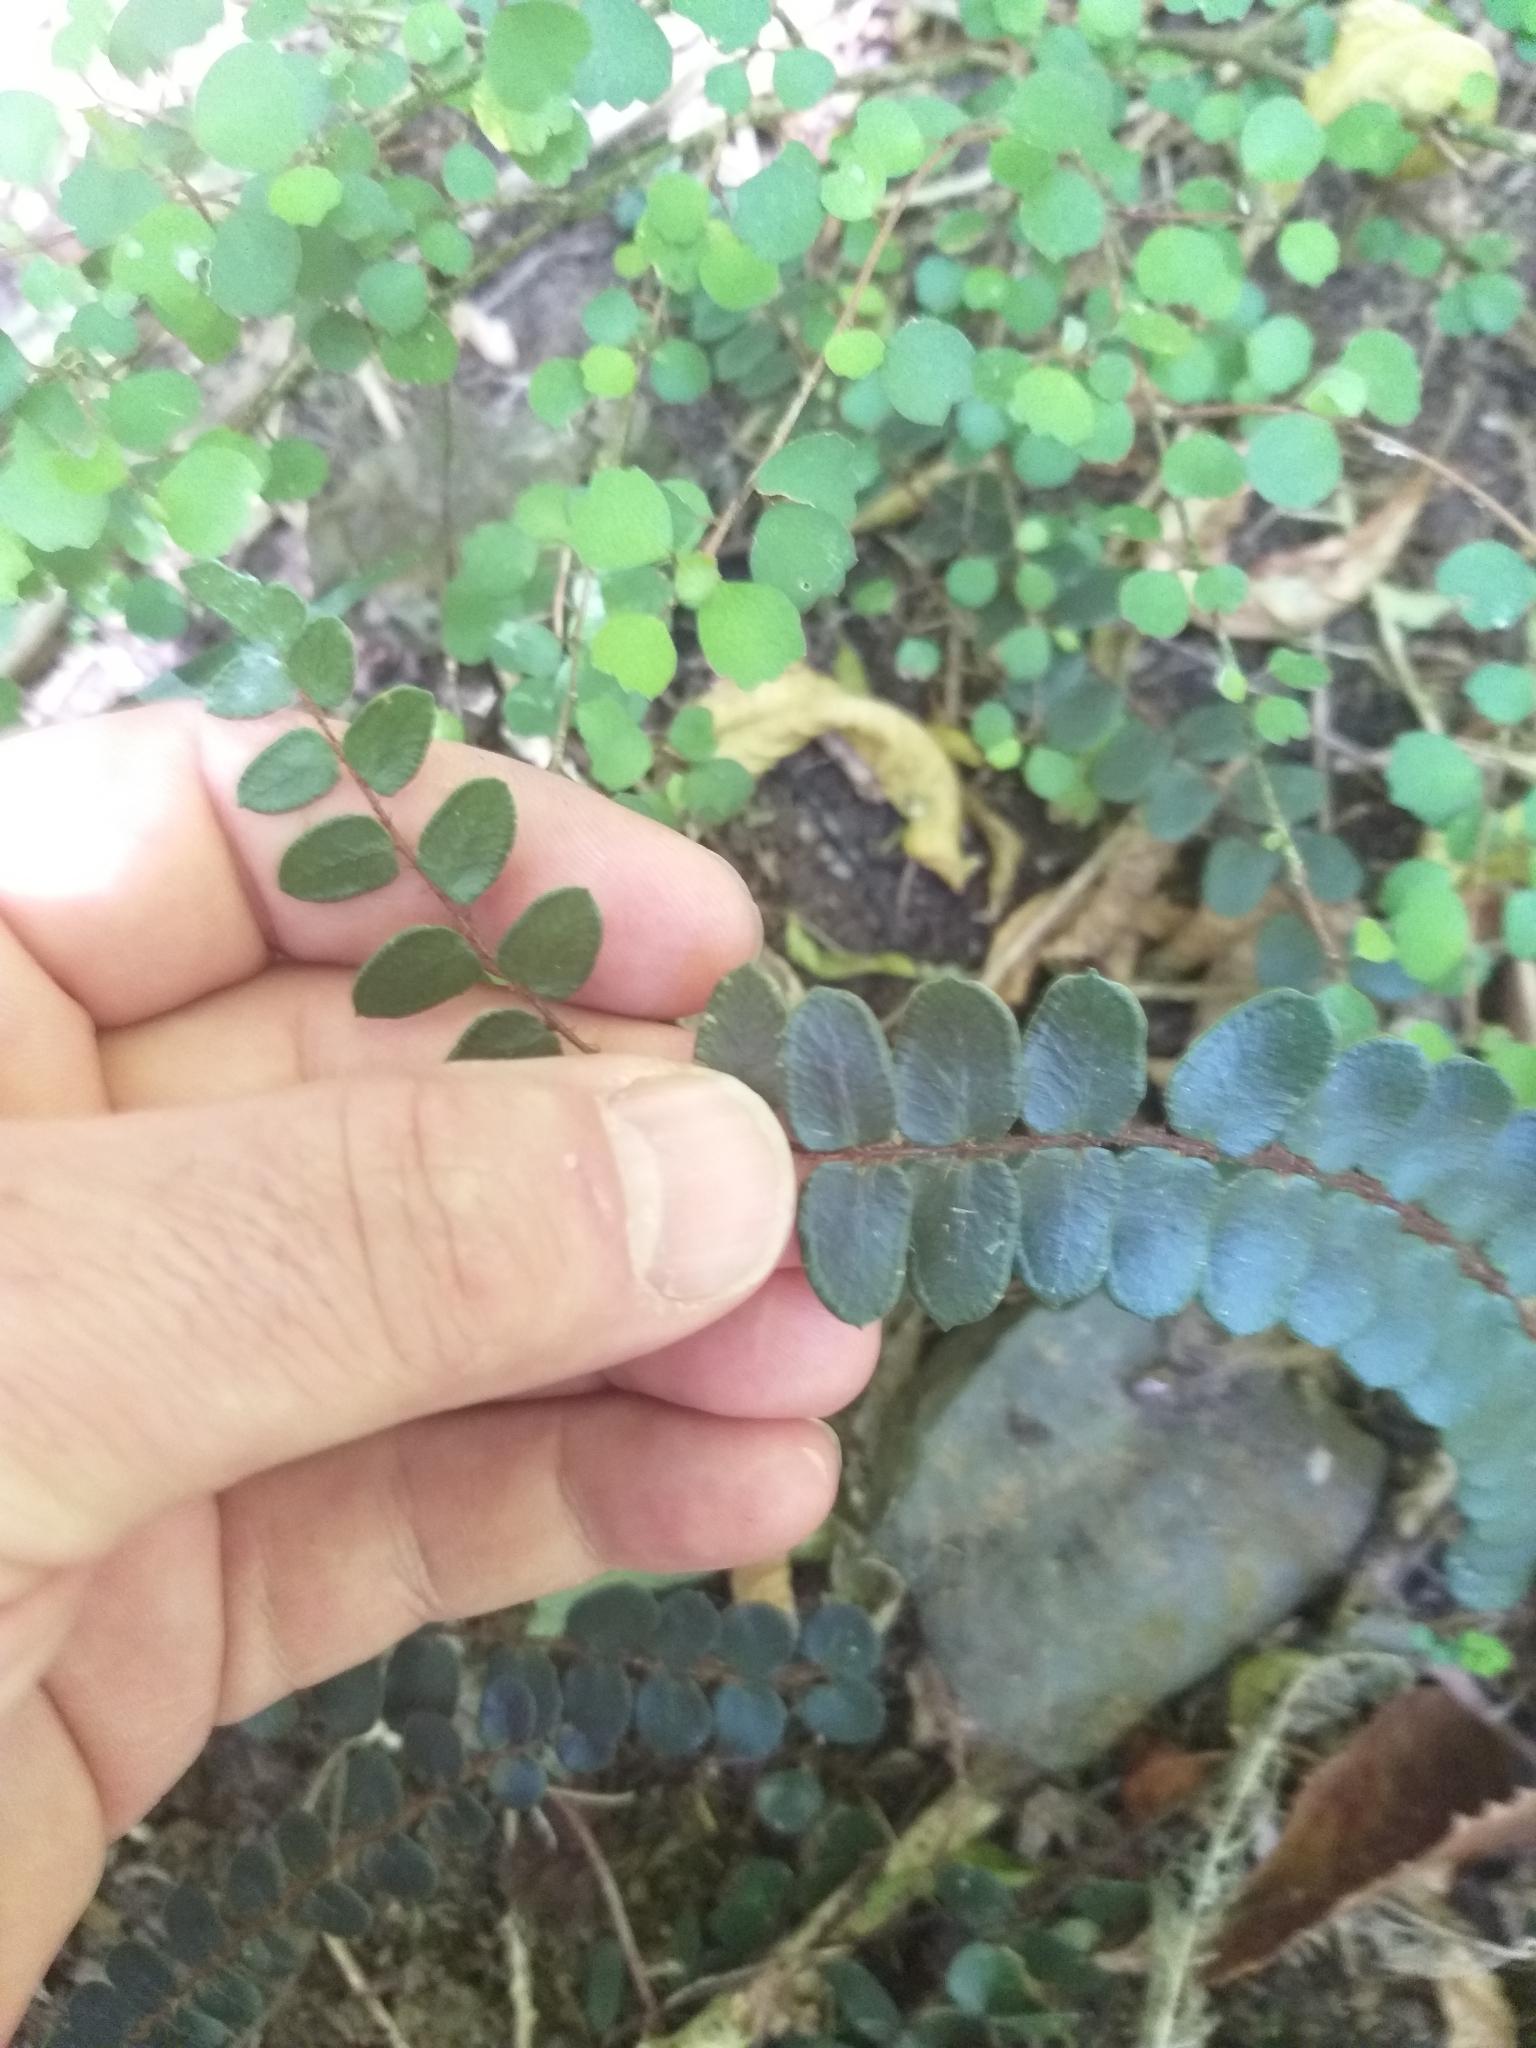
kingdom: Plantae
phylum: Tracheophyta
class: Polypodiopsida
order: Polypodiales
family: Pteridaceae
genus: Pellaea
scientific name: Pellaea rotundifolia
